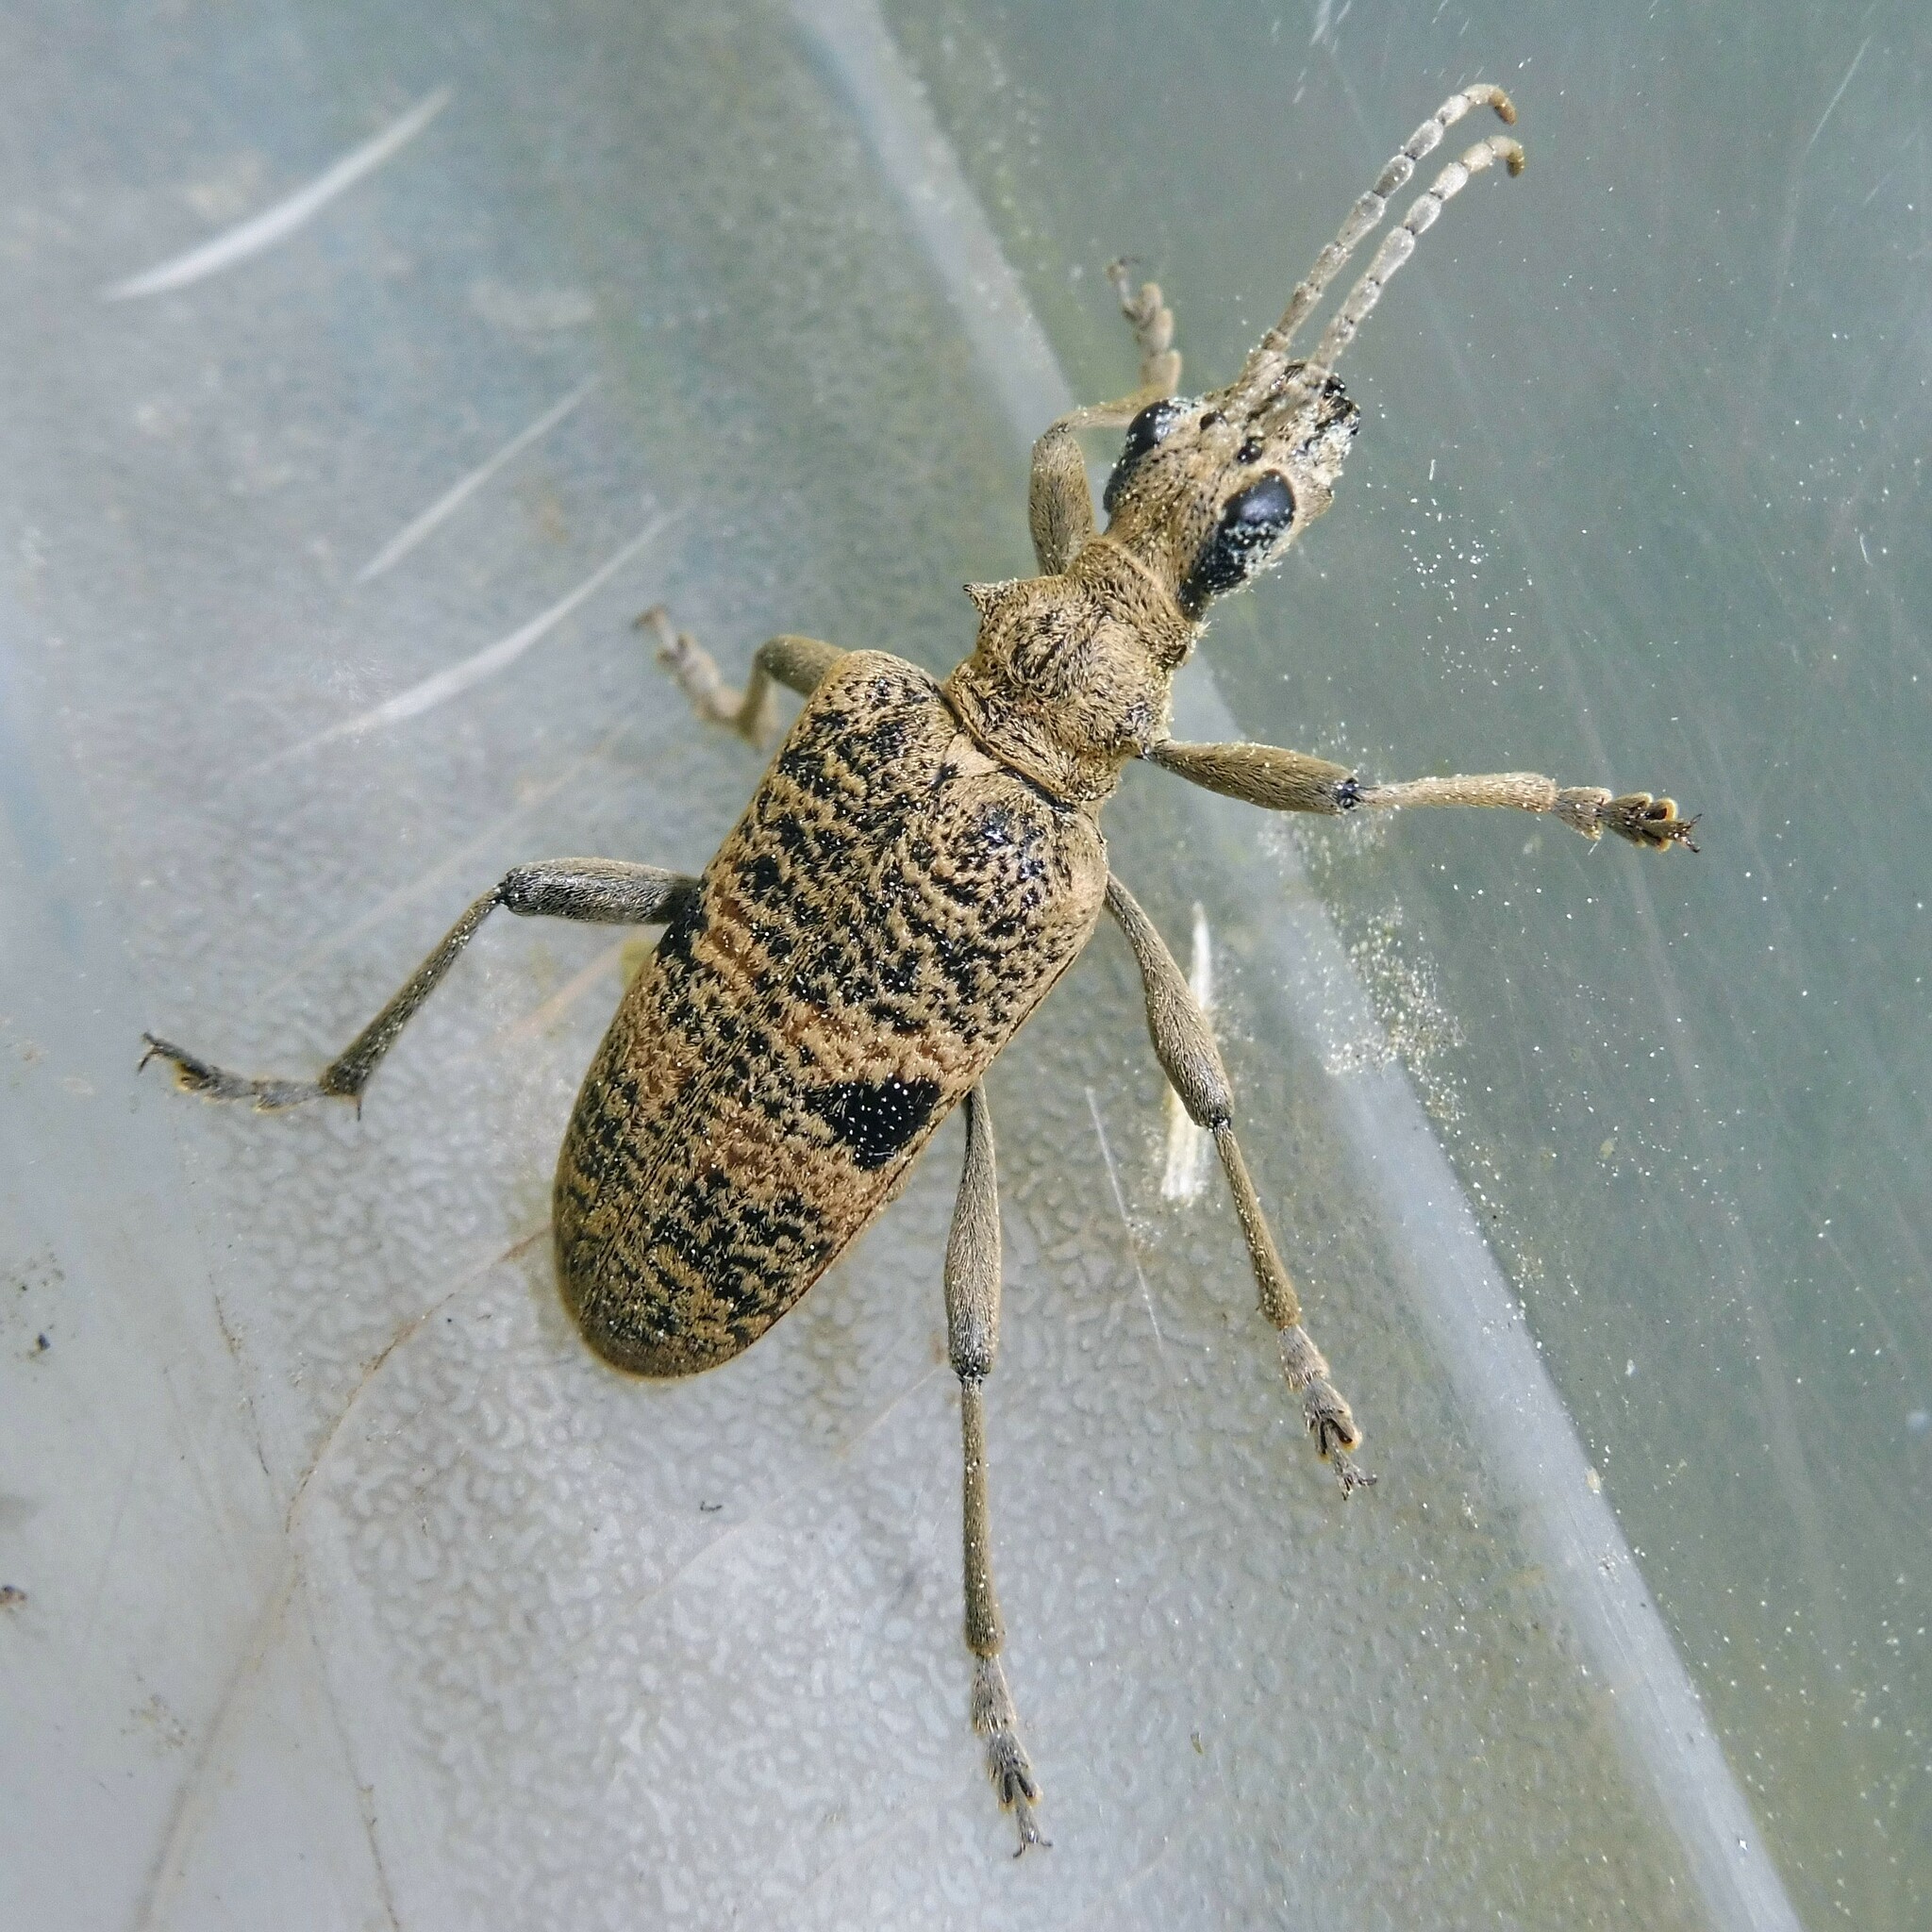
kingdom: Animalia
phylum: Arthropoda
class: Insecta
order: Coleoptera
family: Cerambycidae
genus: Rhagium
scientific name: Rhagium mordax
